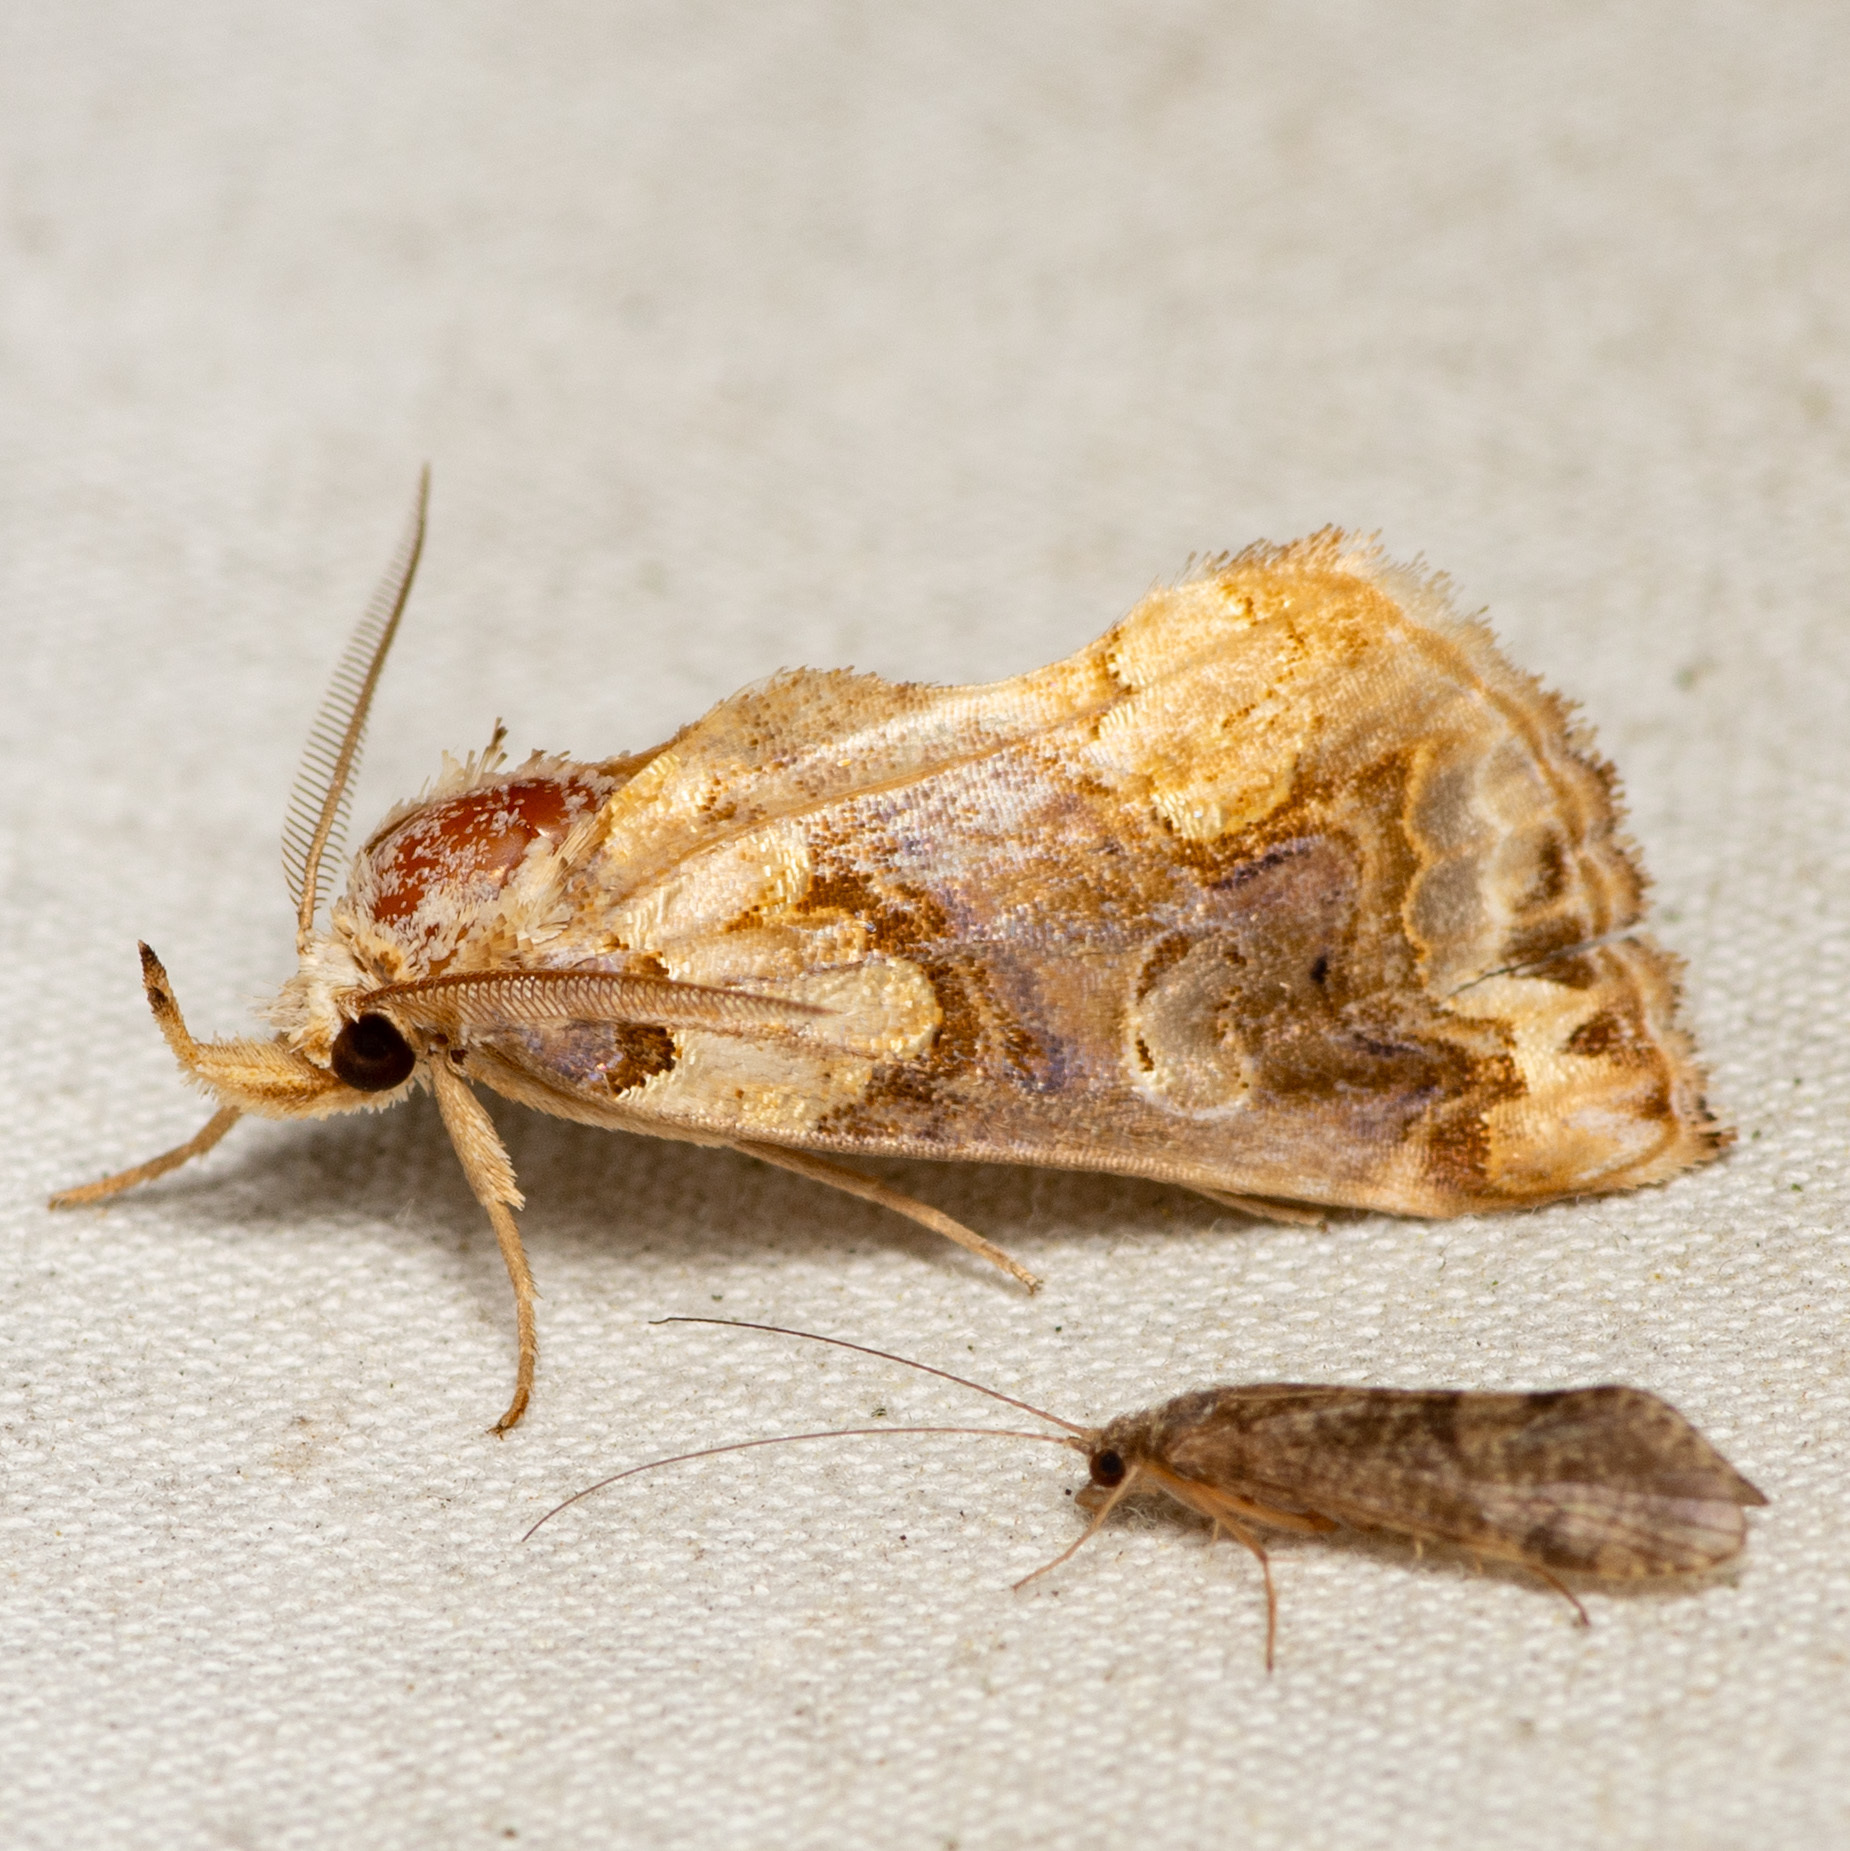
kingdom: Animalia
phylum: Arthropoda
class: Insecta
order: Lepidoptera
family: Erebidae
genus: Plusiodonta
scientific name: Plusiodonta compressipalpis
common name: Moonseed moth
